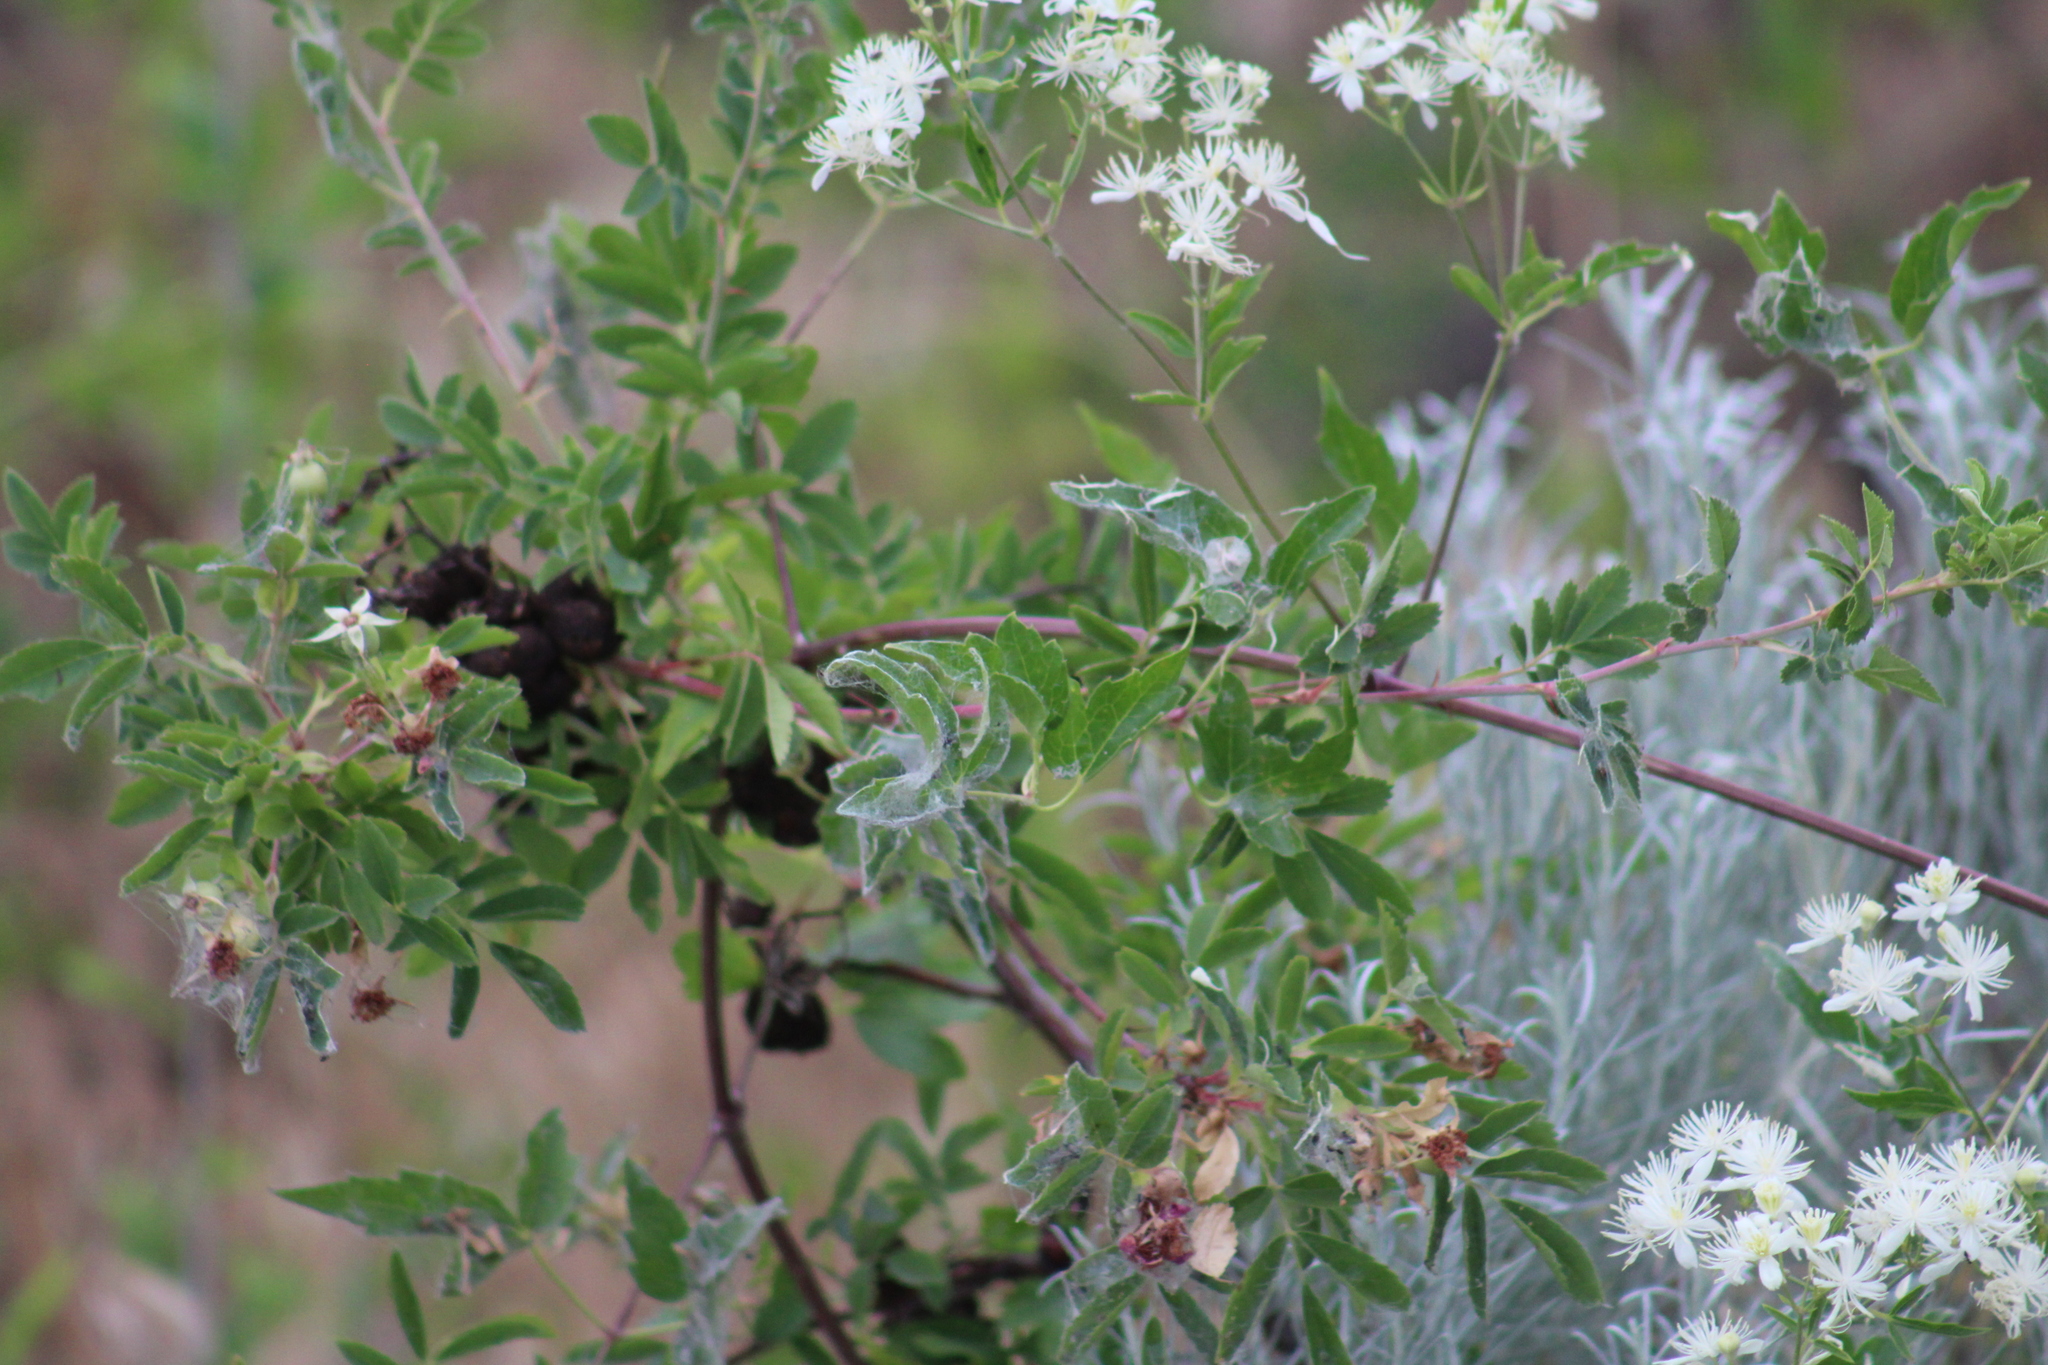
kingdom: Plantae
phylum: Tracheophyta
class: Magnoliopsida
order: Ranunculales
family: Ranunculaceae
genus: Clematis
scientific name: Clematis ligusticifolia
